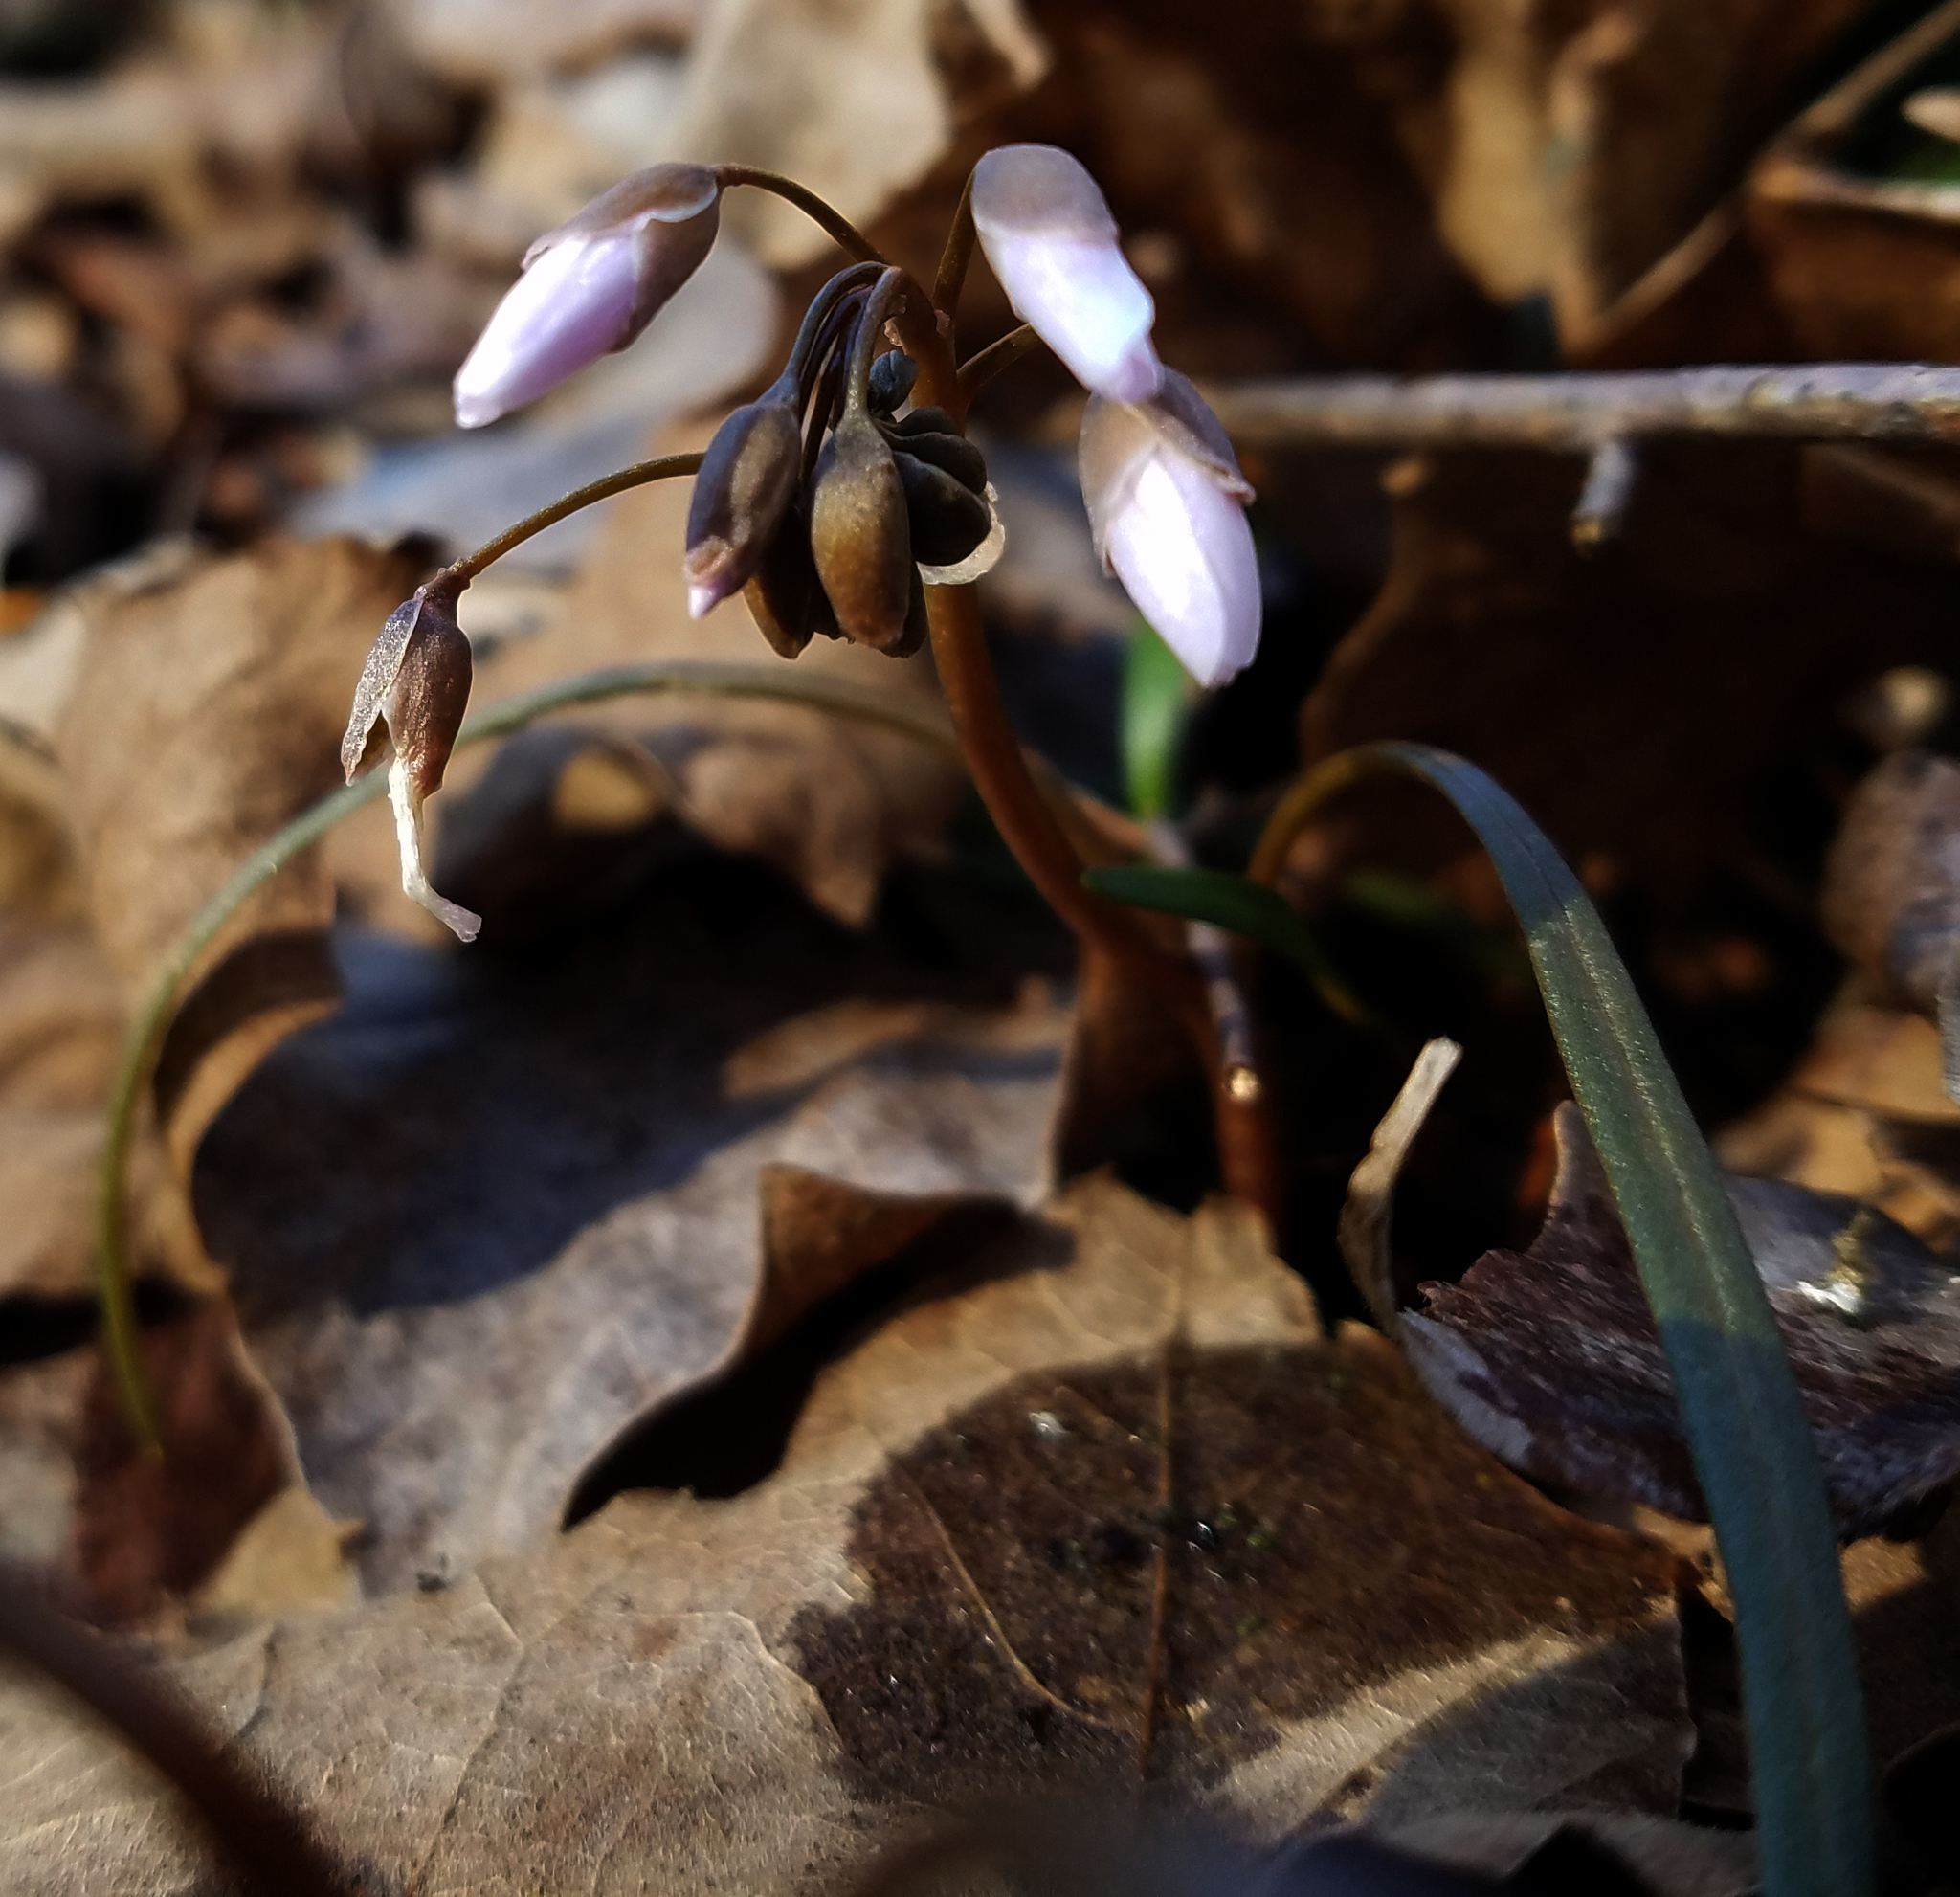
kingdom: Plantae
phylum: Tracheophyta
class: Magnoliopsida
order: Caryophyllales
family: Montiaceae
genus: Claytonia
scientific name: Claytonia virginica
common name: Virginia springbeauty
